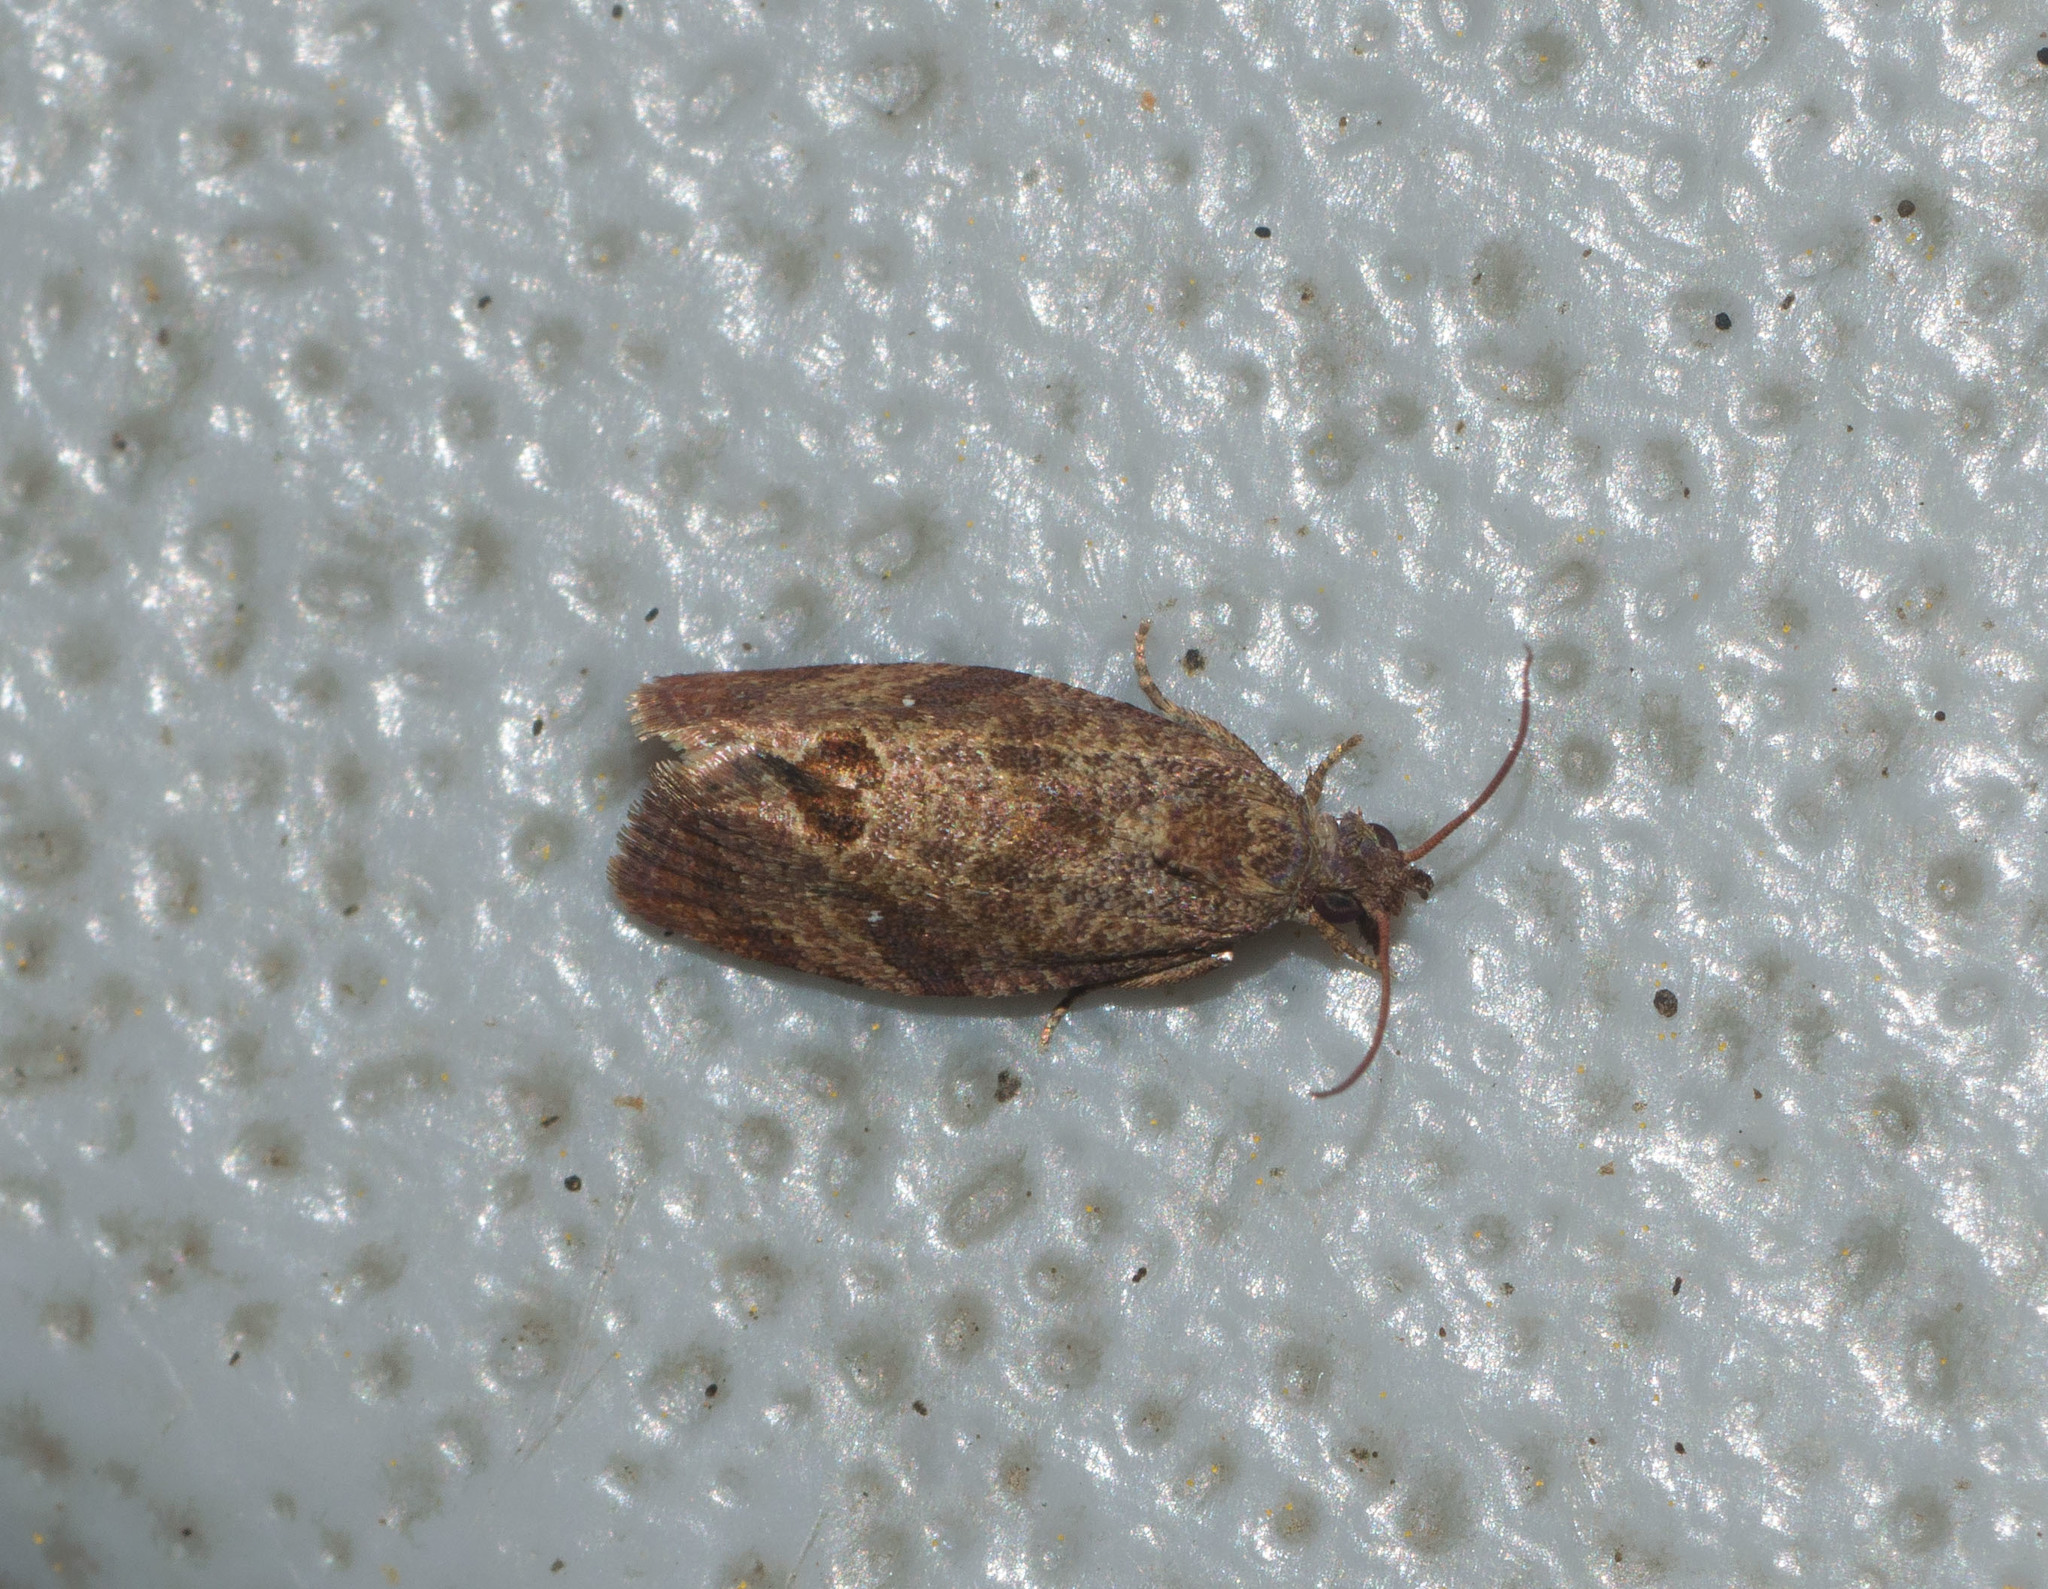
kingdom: Animalia
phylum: Arthropoda
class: Insecta
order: Lepidoptera
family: Tortricidae
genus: Cryptophlebia
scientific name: Cryptophlebia illepida
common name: Moth
